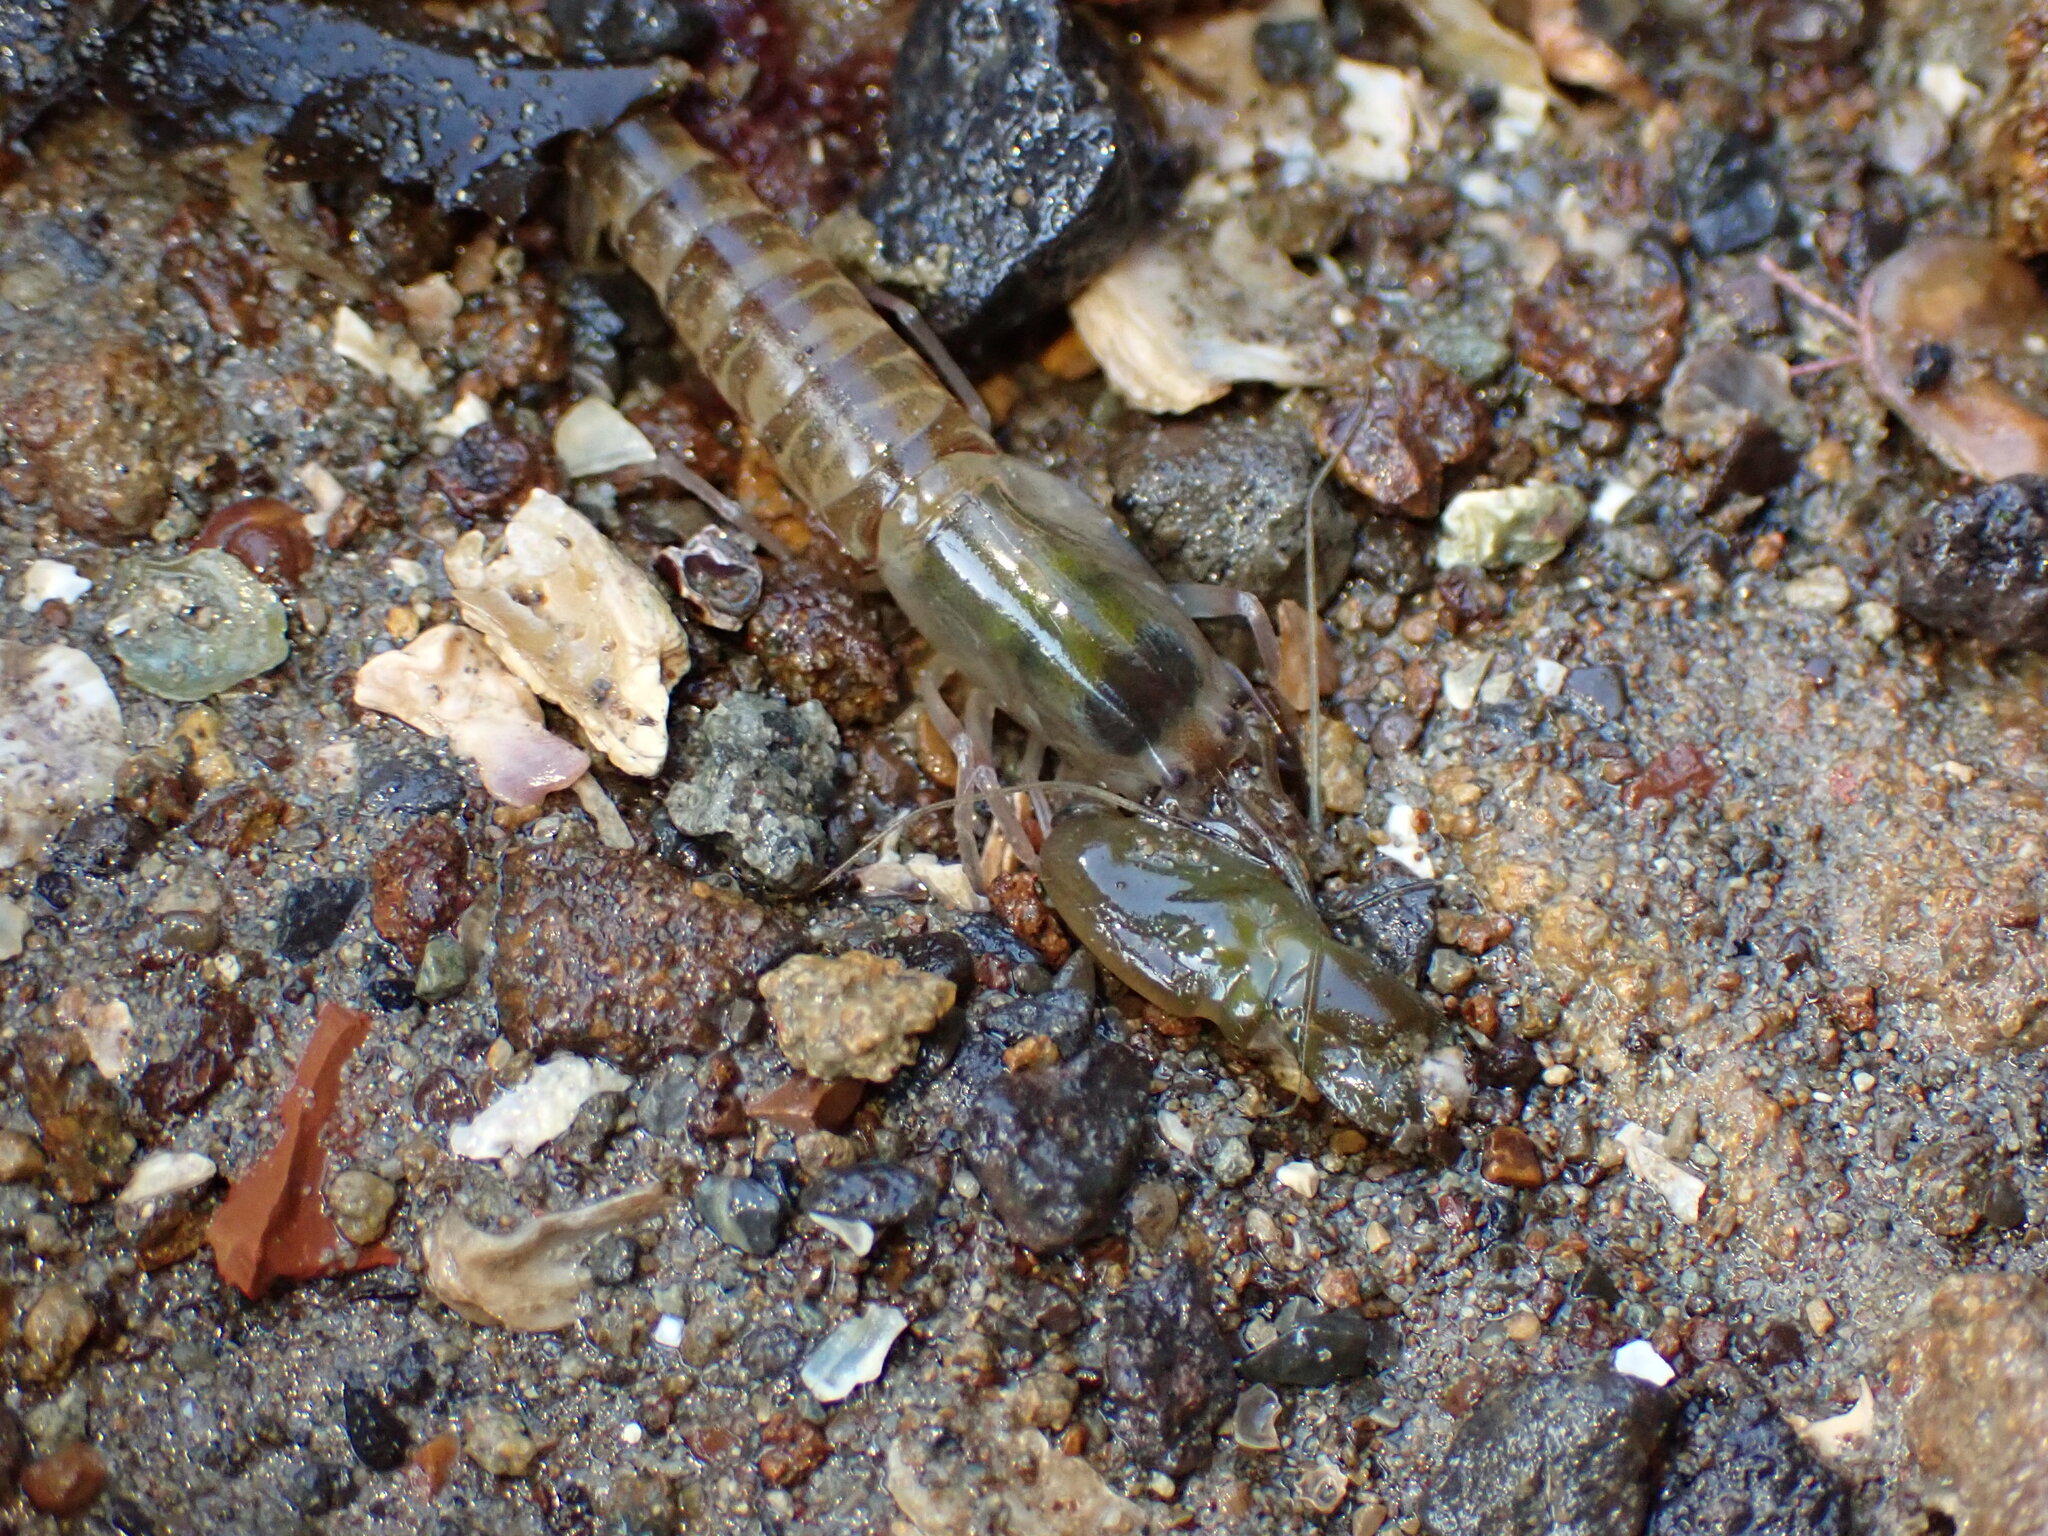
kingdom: Animalia
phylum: Arthropoda
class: Malacostraca
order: Decapoda
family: Alpheidae
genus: Alpheus
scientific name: Alpheus richardsoni
